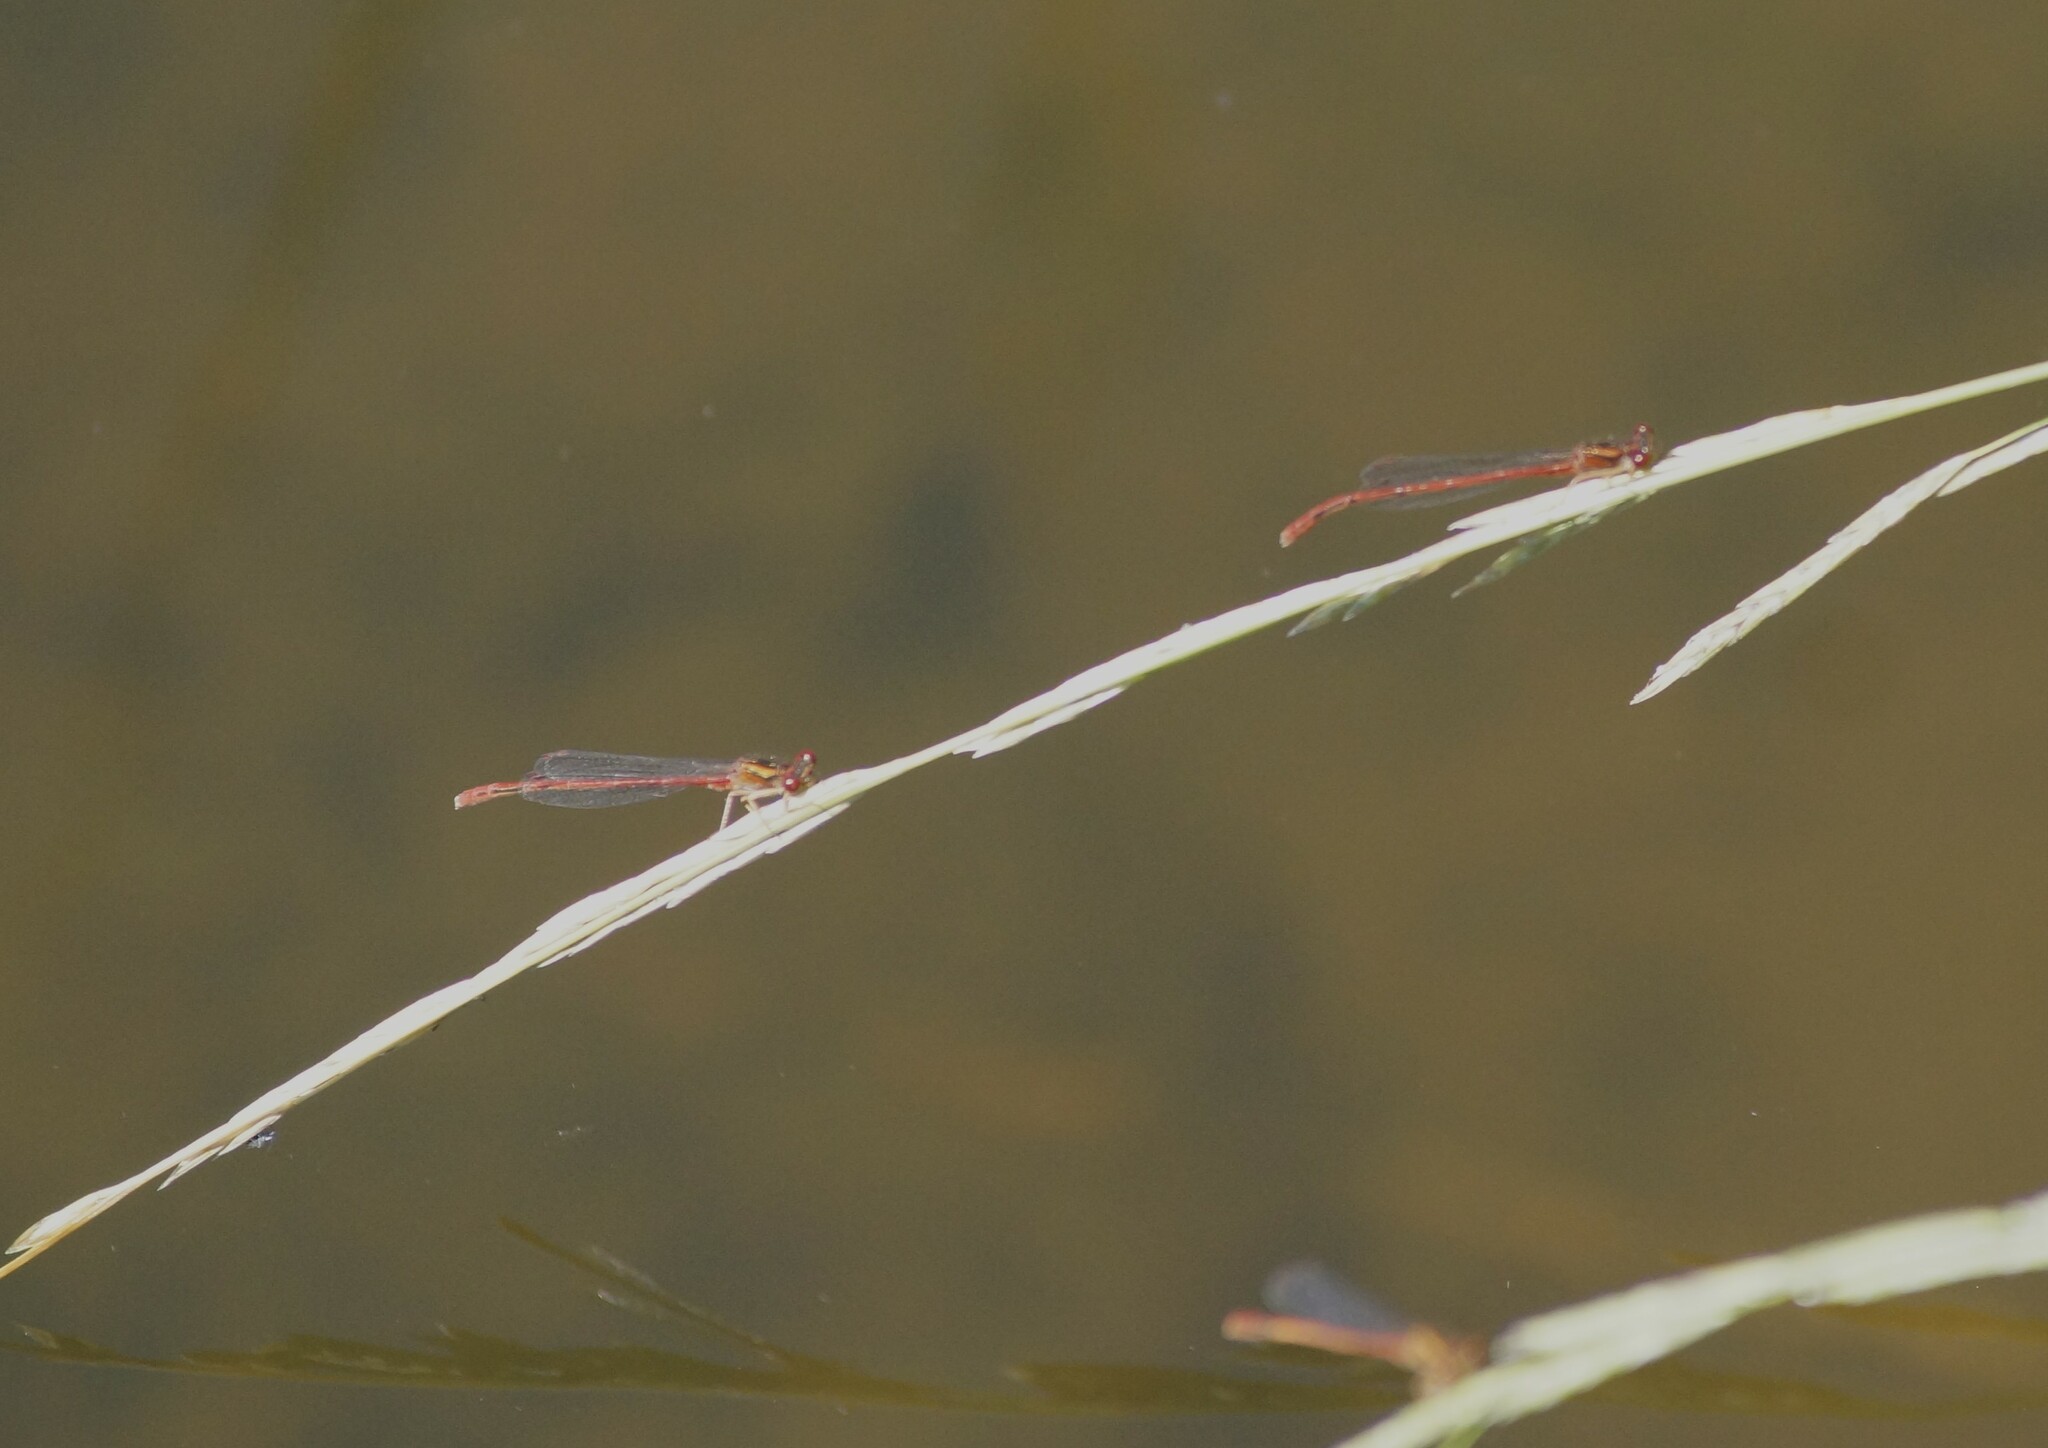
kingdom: Animalia
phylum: Arthropoda
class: Insecta
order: Odonata
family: Coenagrionidae
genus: Xanthocnemis
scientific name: Xanthocnemis zealandica
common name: Common redcoat damselfly
